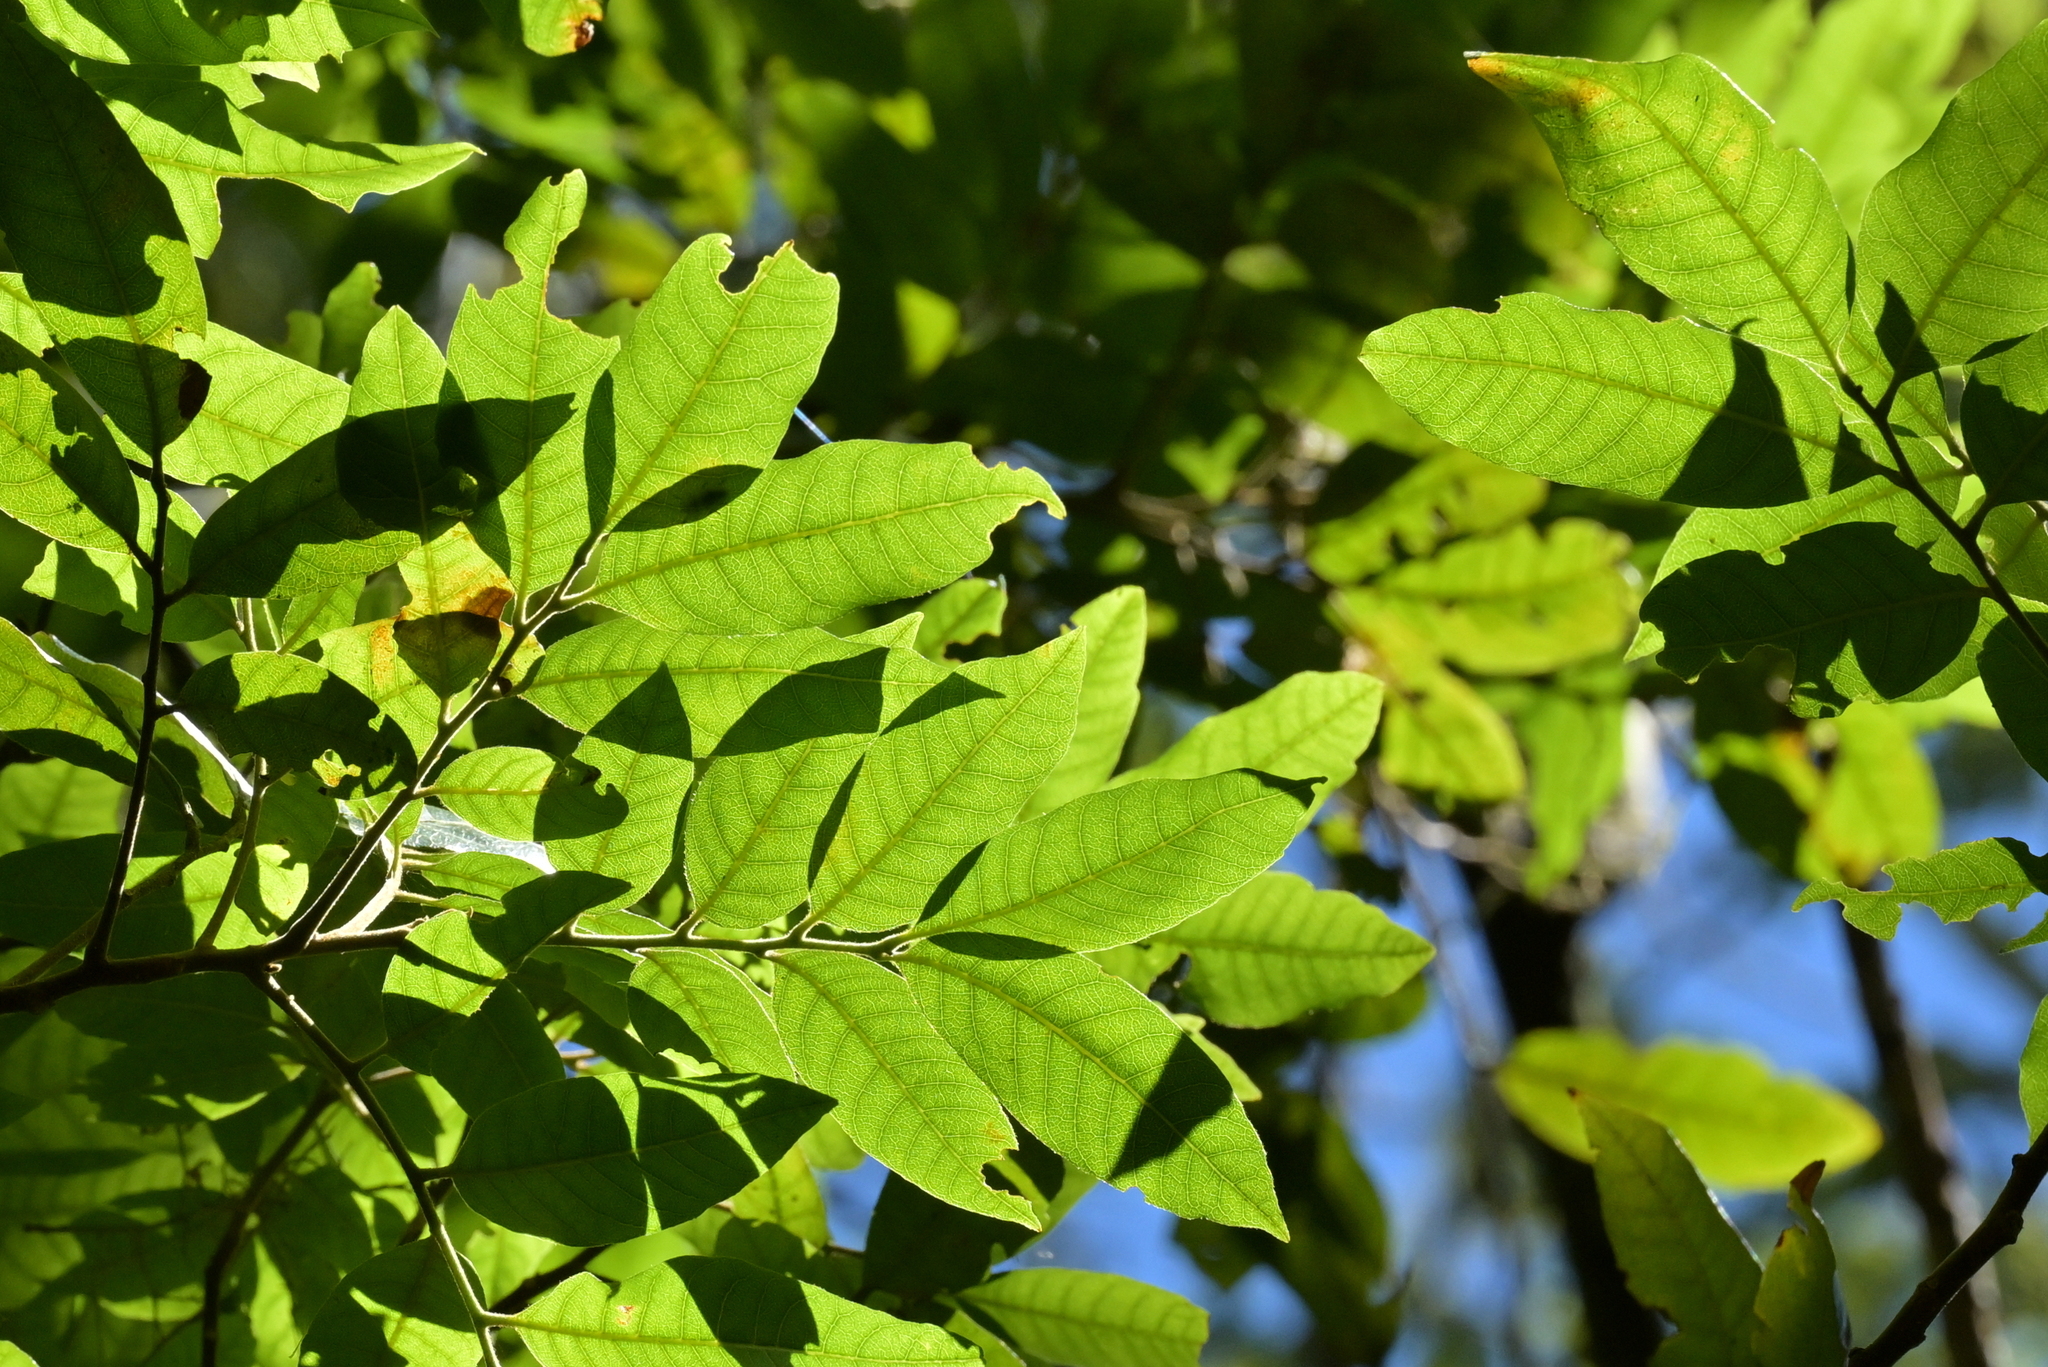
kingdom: Plantae
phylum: Tracheophyta
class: Magnoliopsida
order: Sapindales
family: Sapindaceae
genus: Alectryon
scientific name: Alectryon excelsus
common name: Three kings titoki
